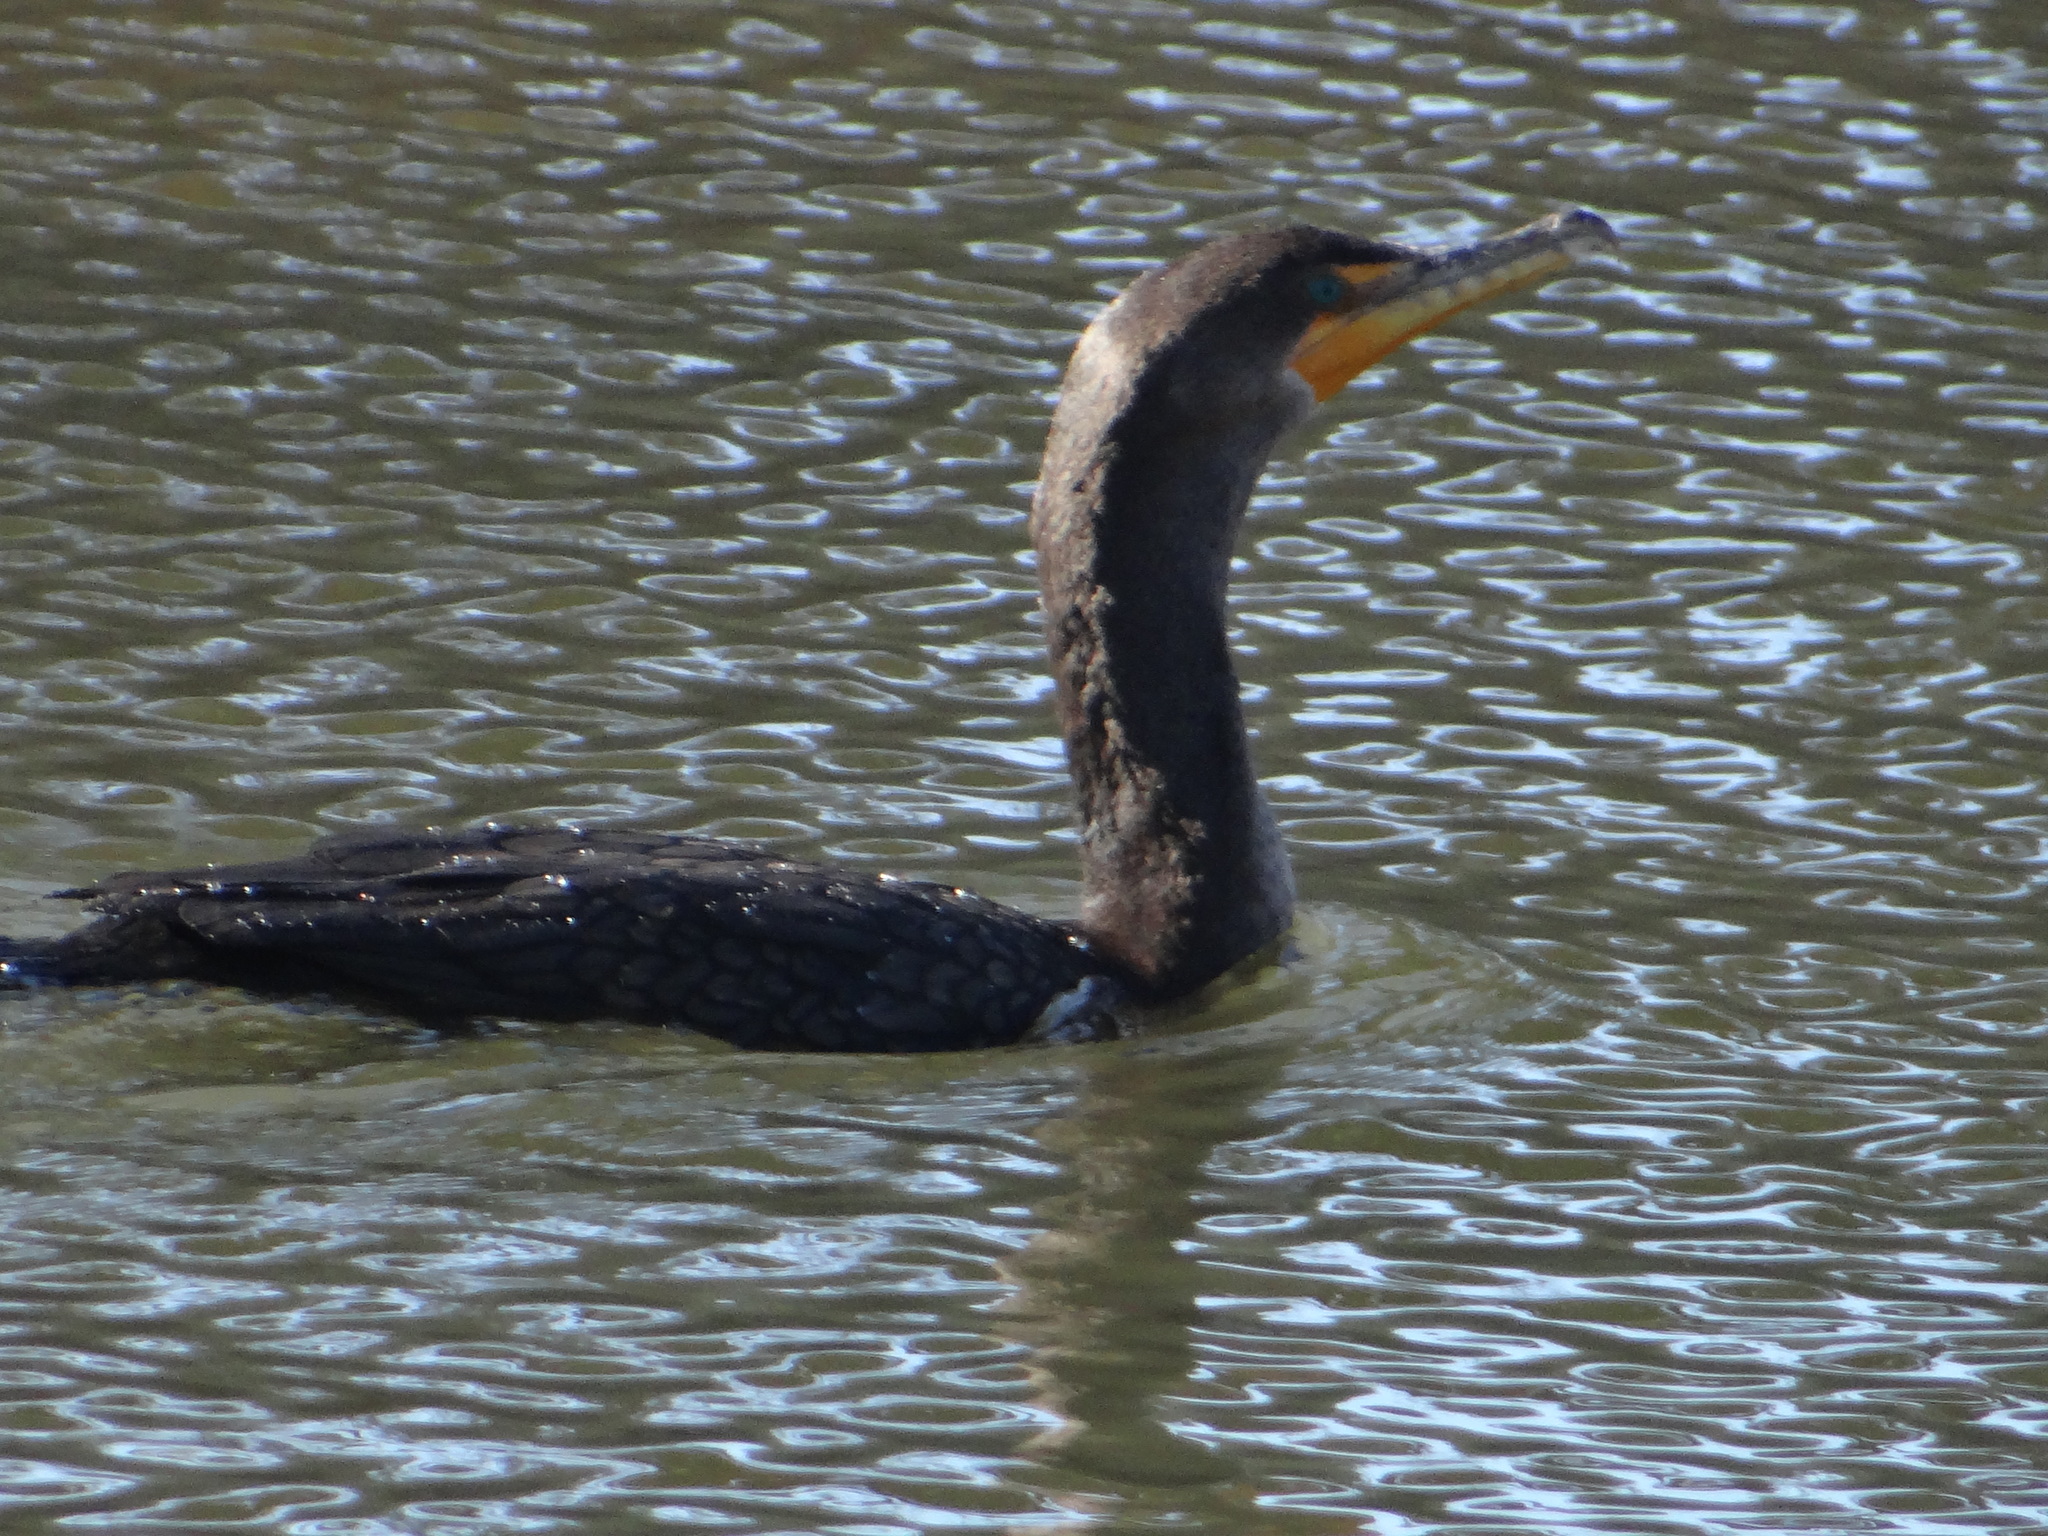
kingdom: Animalia
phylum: Chordata
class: Aves
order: Suliformes
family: Phalacrocoracidae
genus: Phalacrocorax
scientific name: Phalacrocorax auritus
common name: Double-crested cormorant
